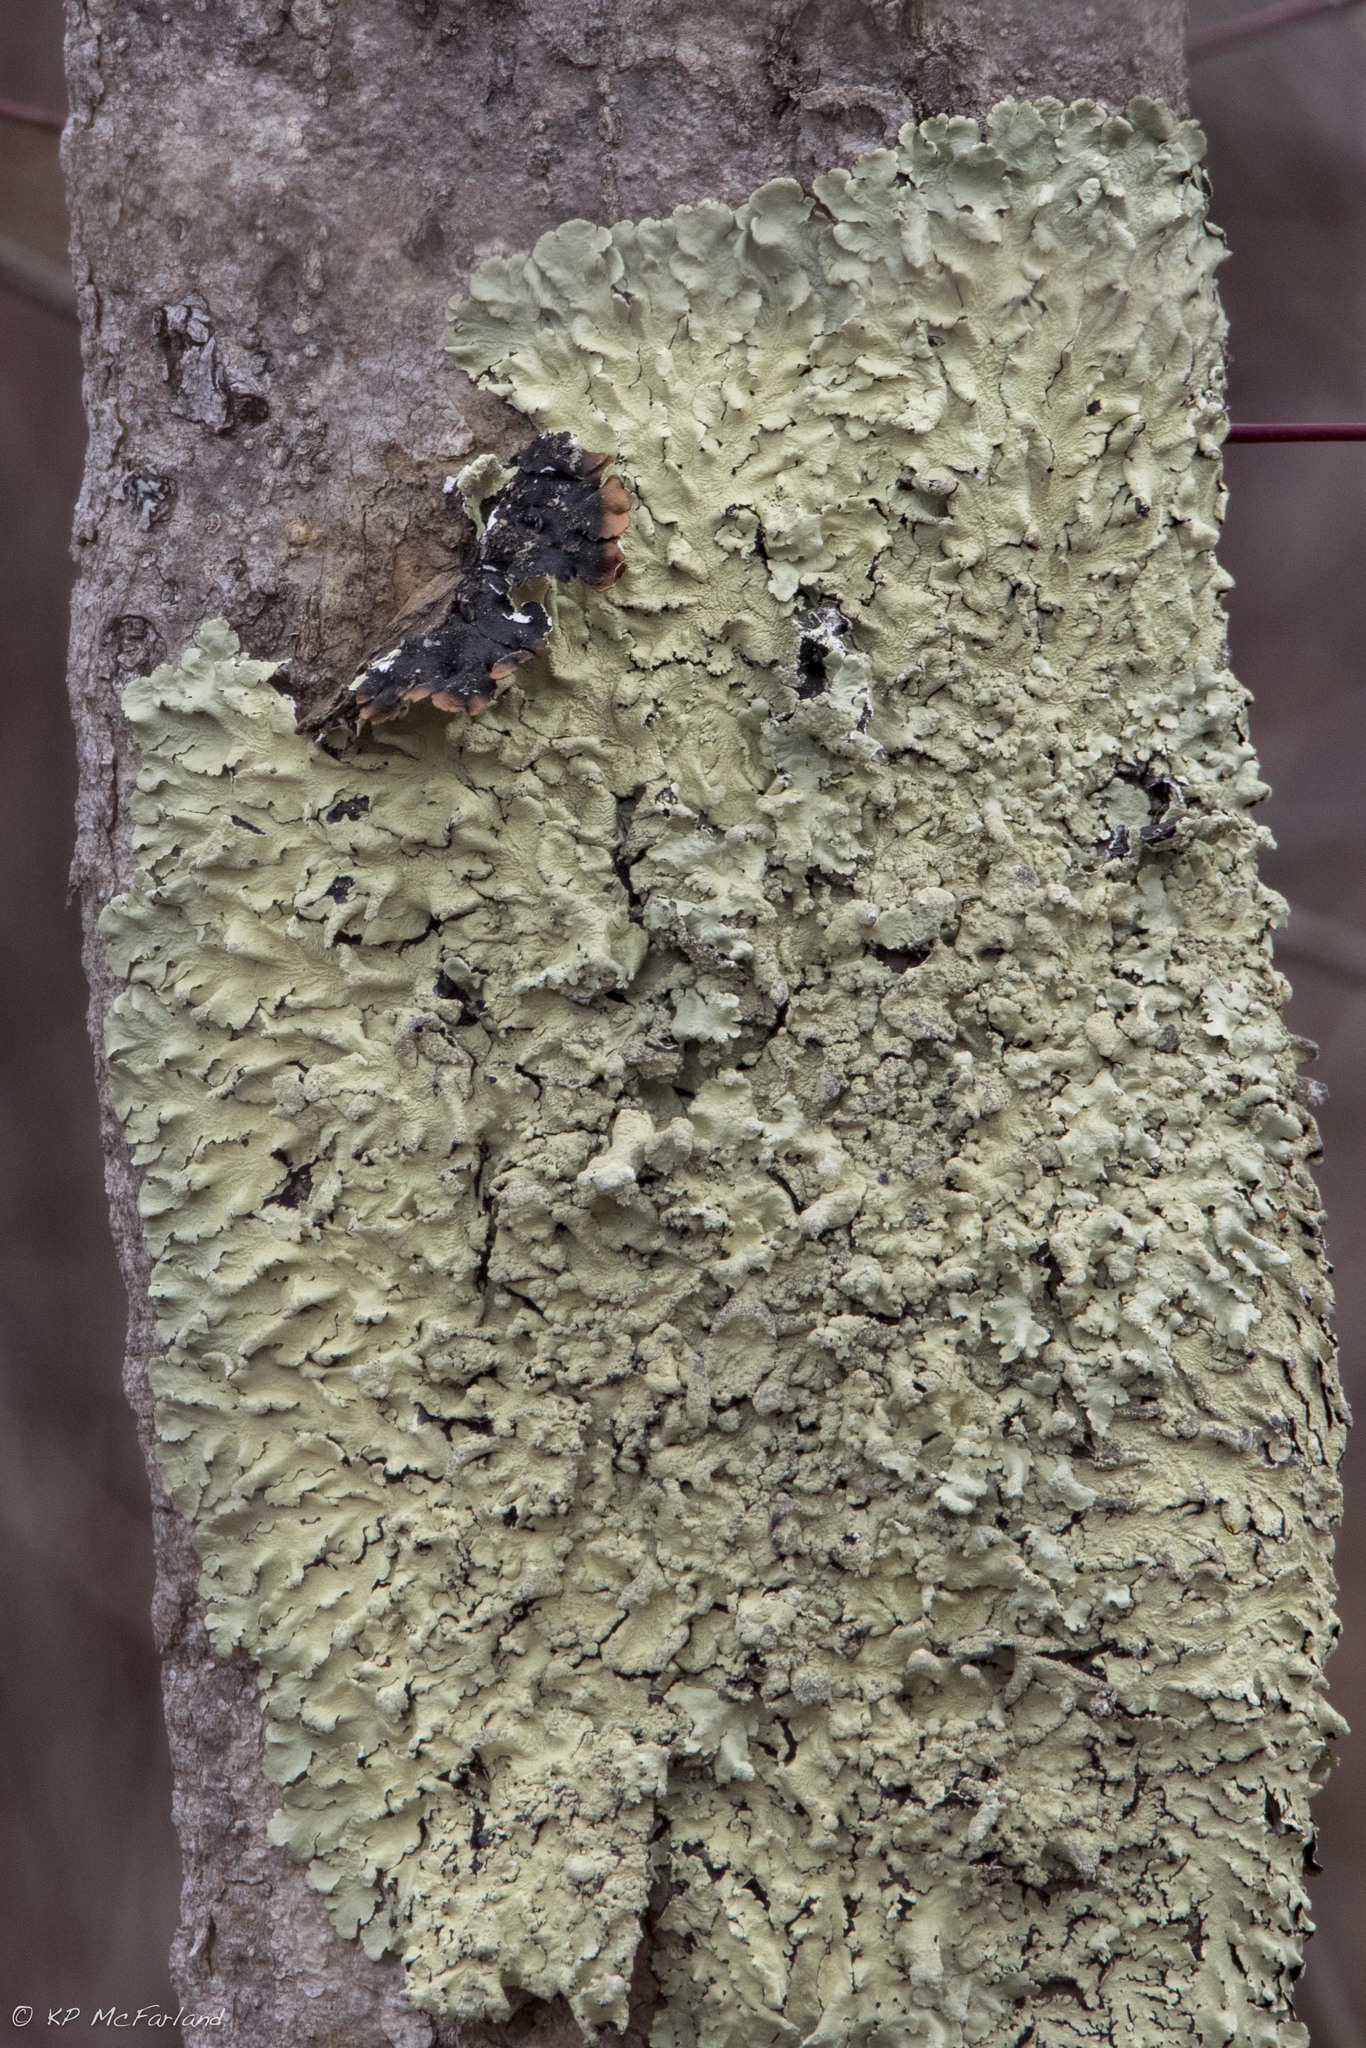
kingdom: Fungi
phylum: Ascomycota
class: Lecanoromycetes
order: Lecanorales
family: Parmeliaceae
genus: Flavoparmelia
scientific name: Flavoparmelia caperata
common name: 40-mile per hour lichen
